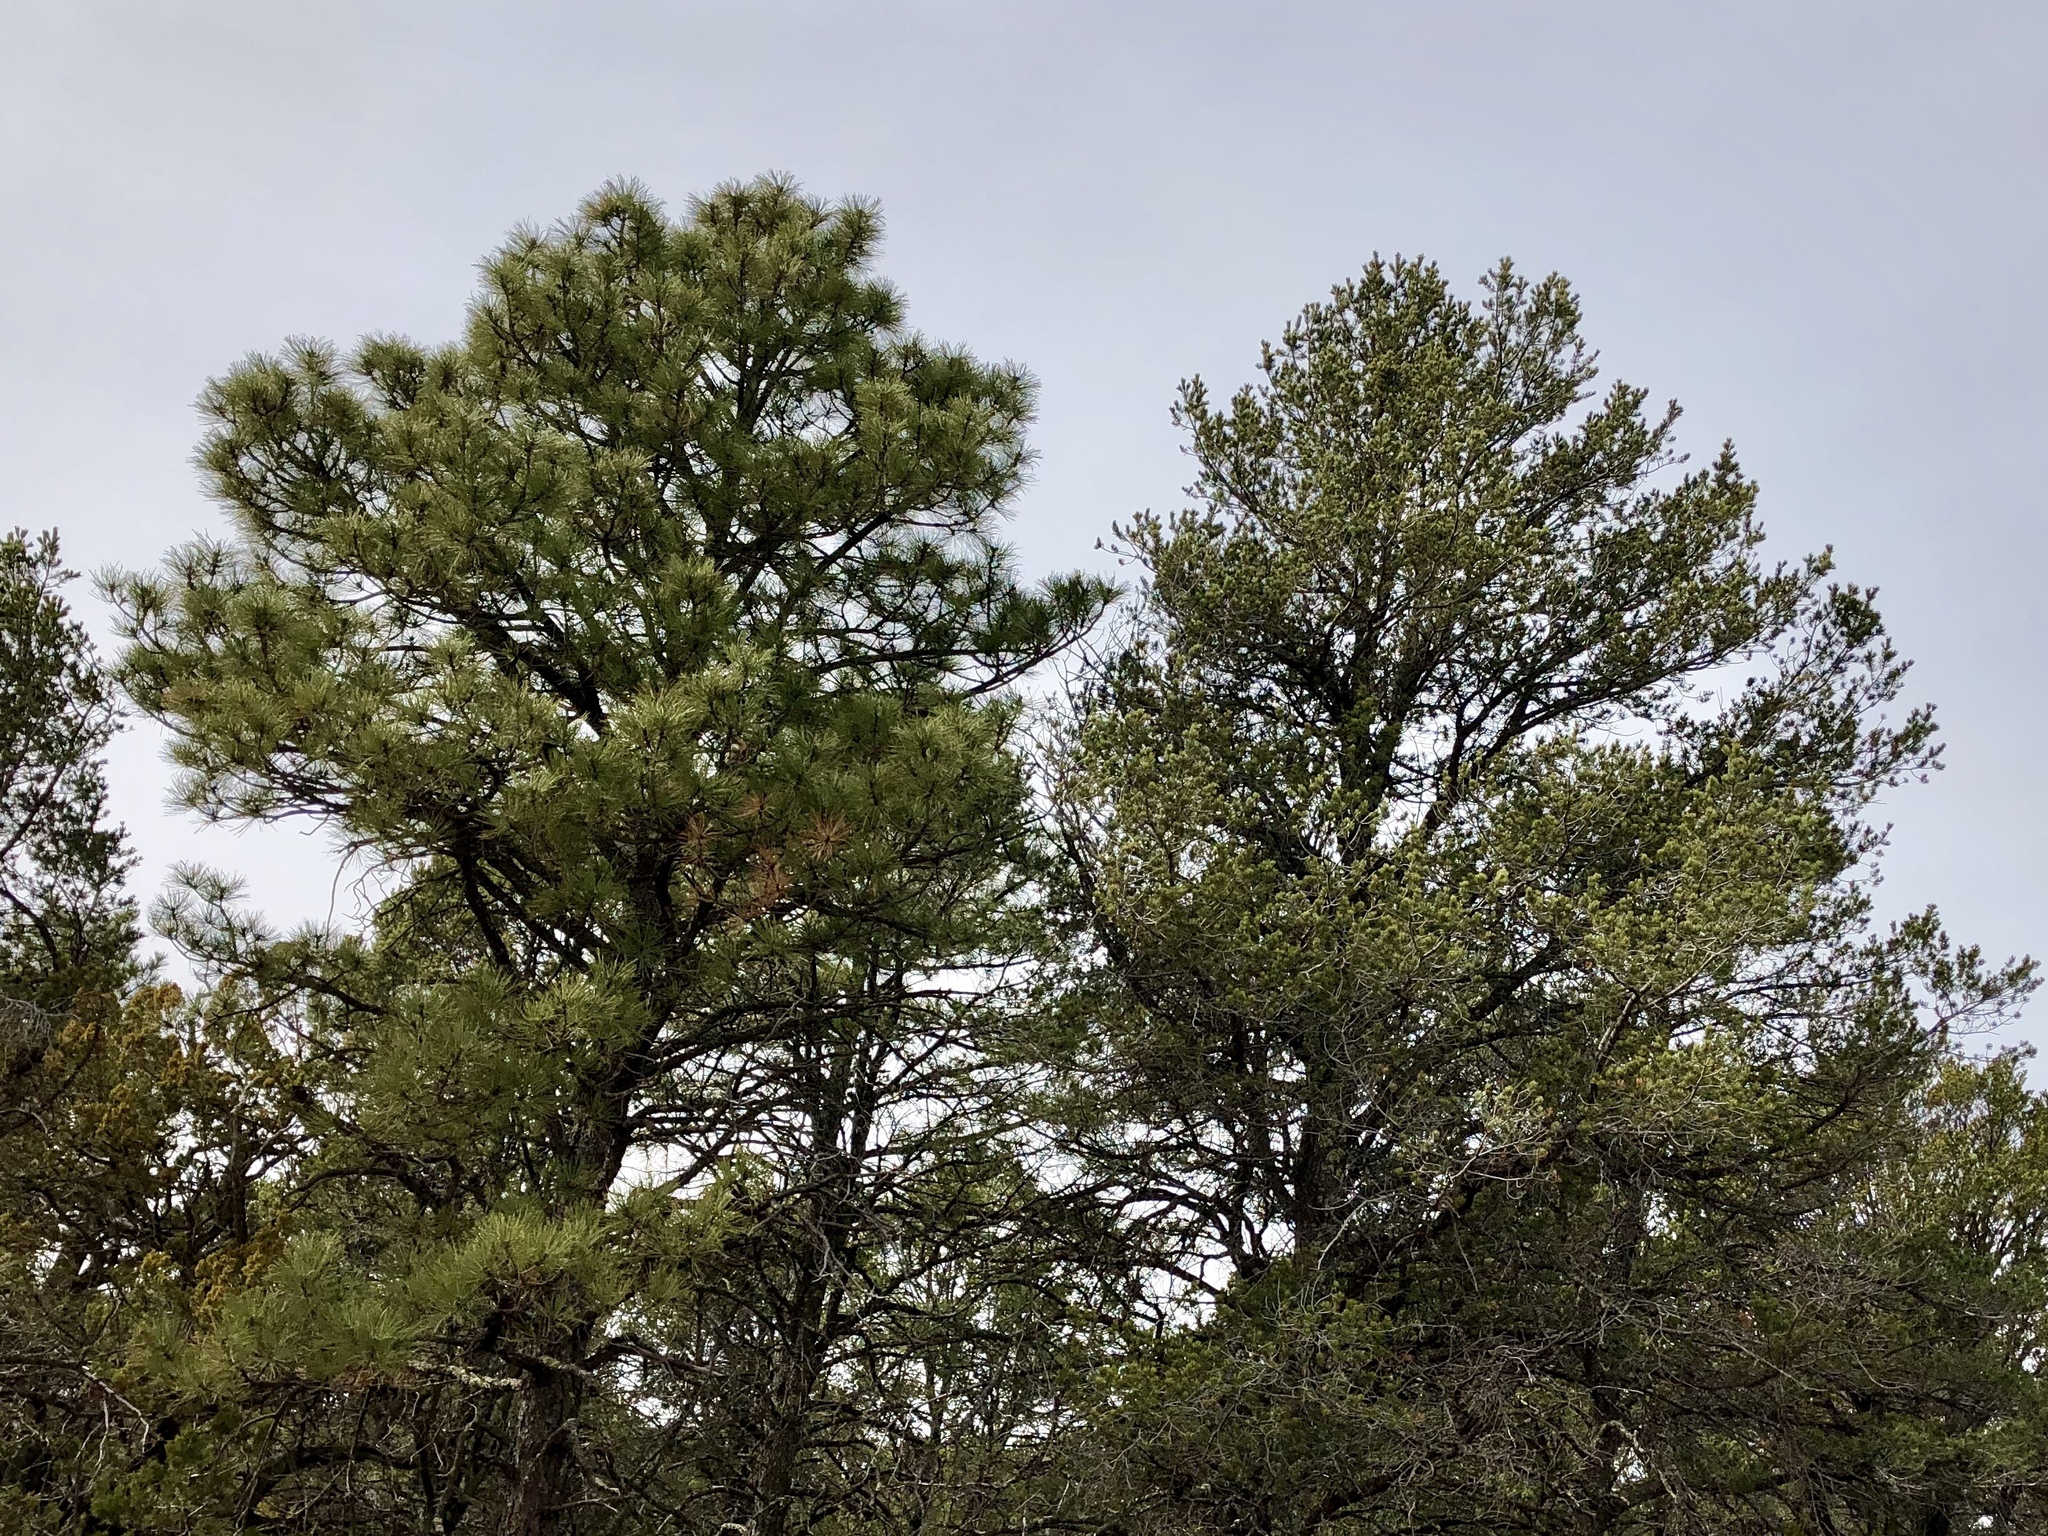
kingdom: Plantae
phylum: Tracheophyta
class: Pinopsida
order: Pinales
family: Pinaceae
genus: Pinus
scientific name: Pinus ponderosa
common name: Western yellow-pine
